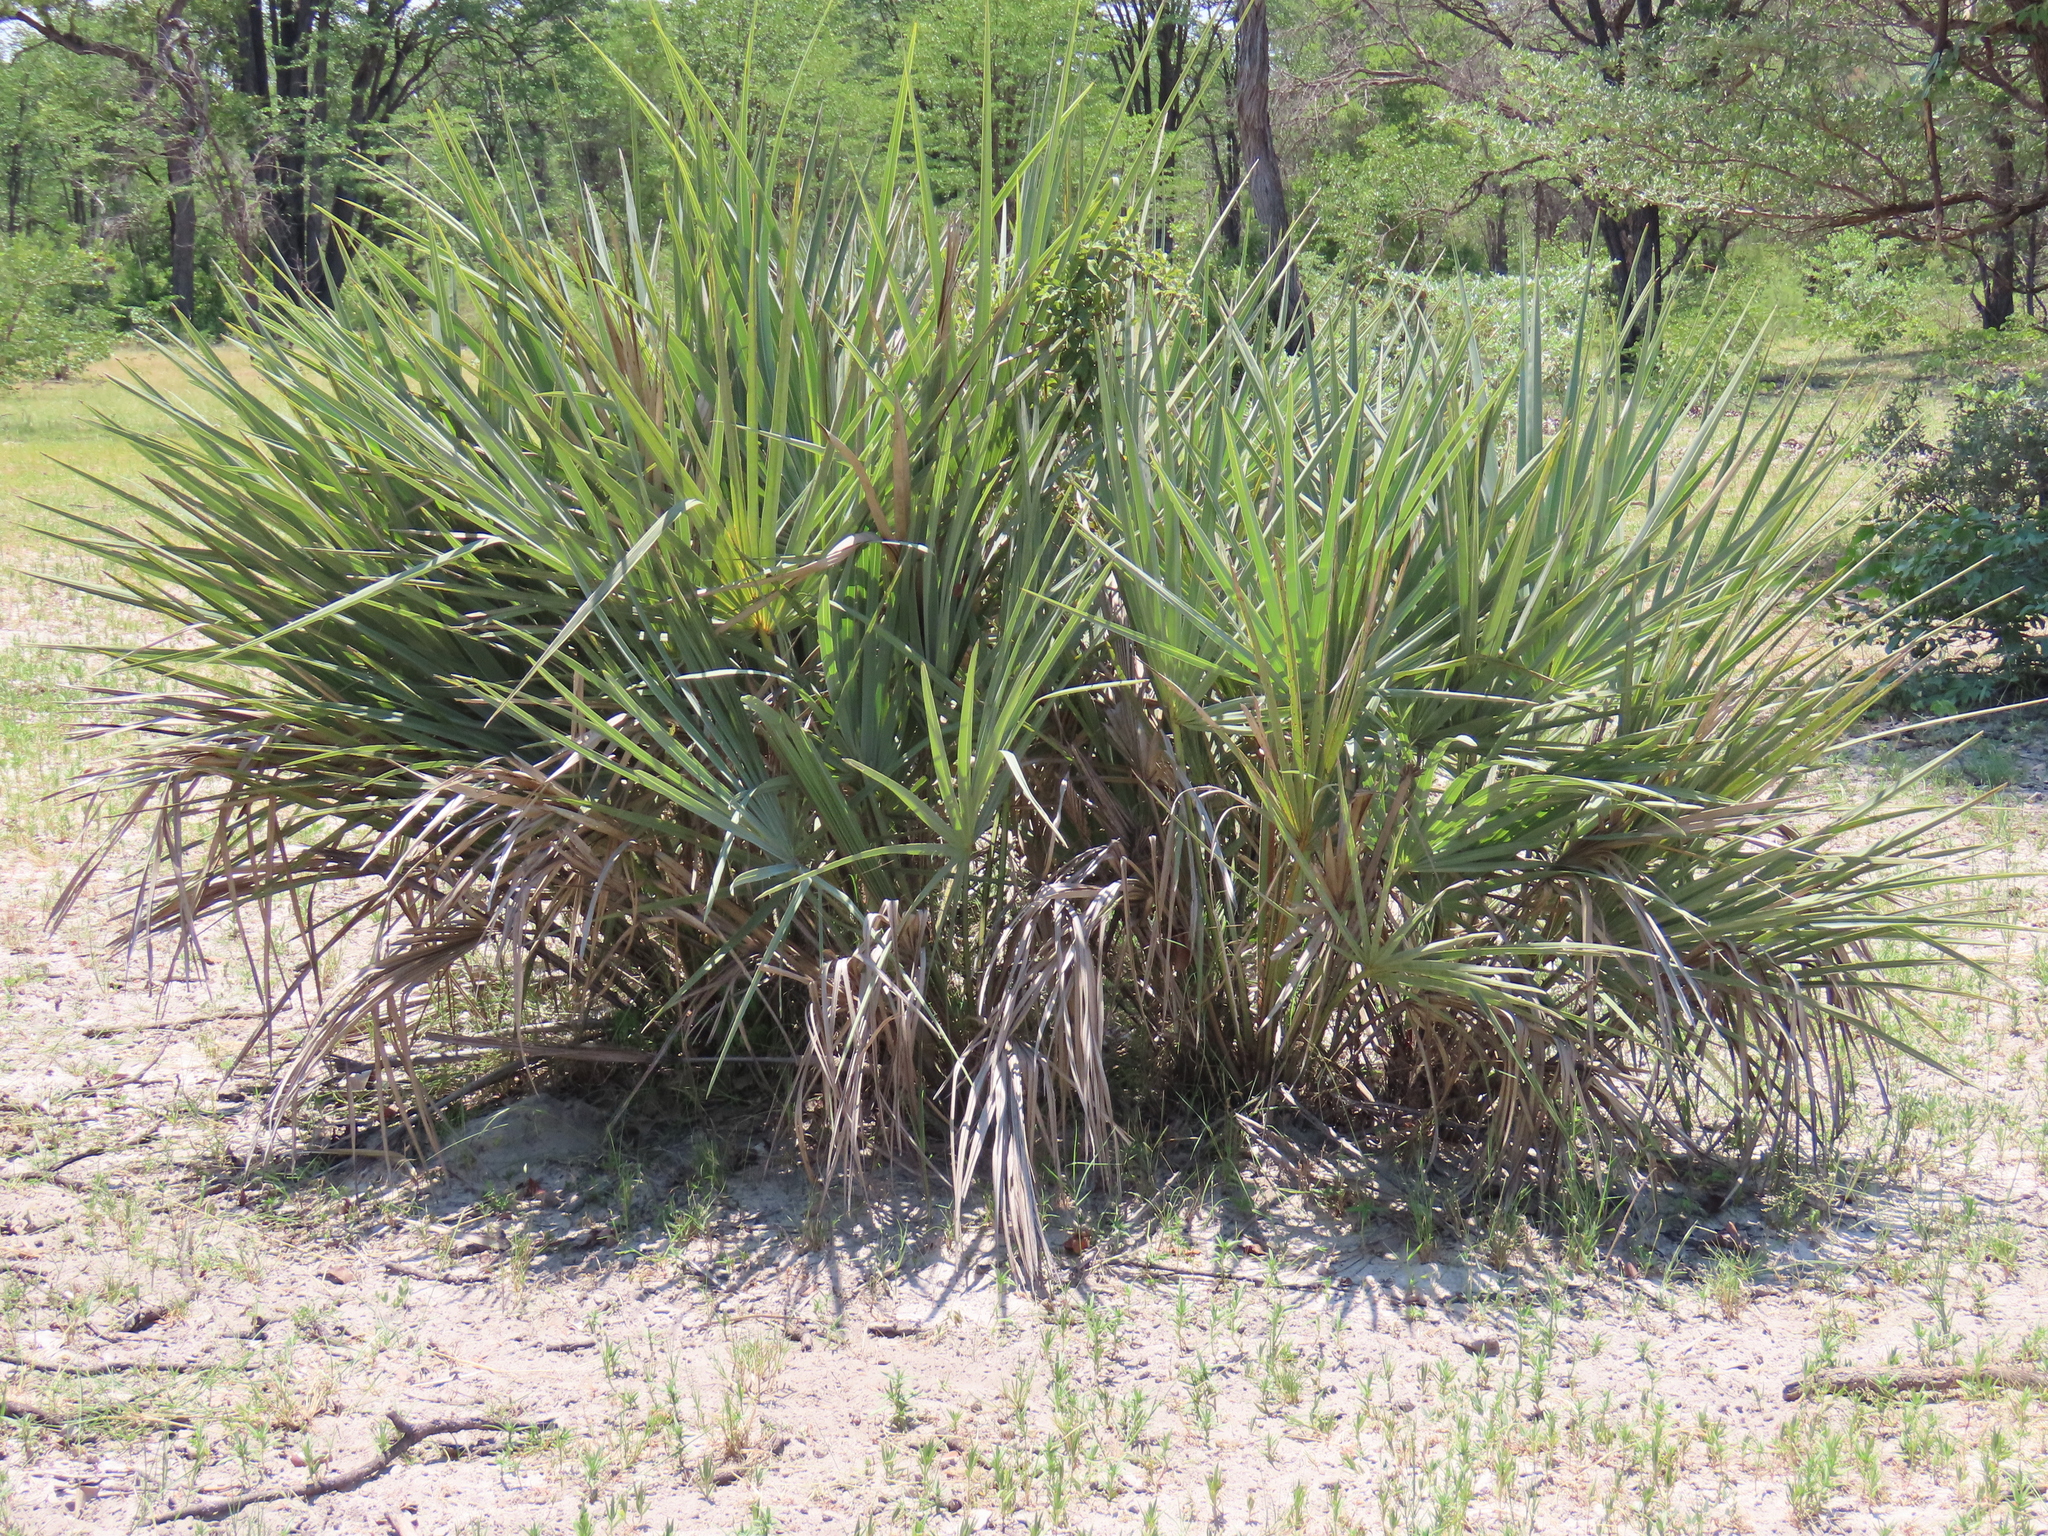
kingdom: Plantae
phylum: Tracheophyta
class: Liliopsida
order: Arecales
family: Arecaceae
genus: Hyphaene
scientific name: Hyphaene petersiana
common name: African ivory nut palm
